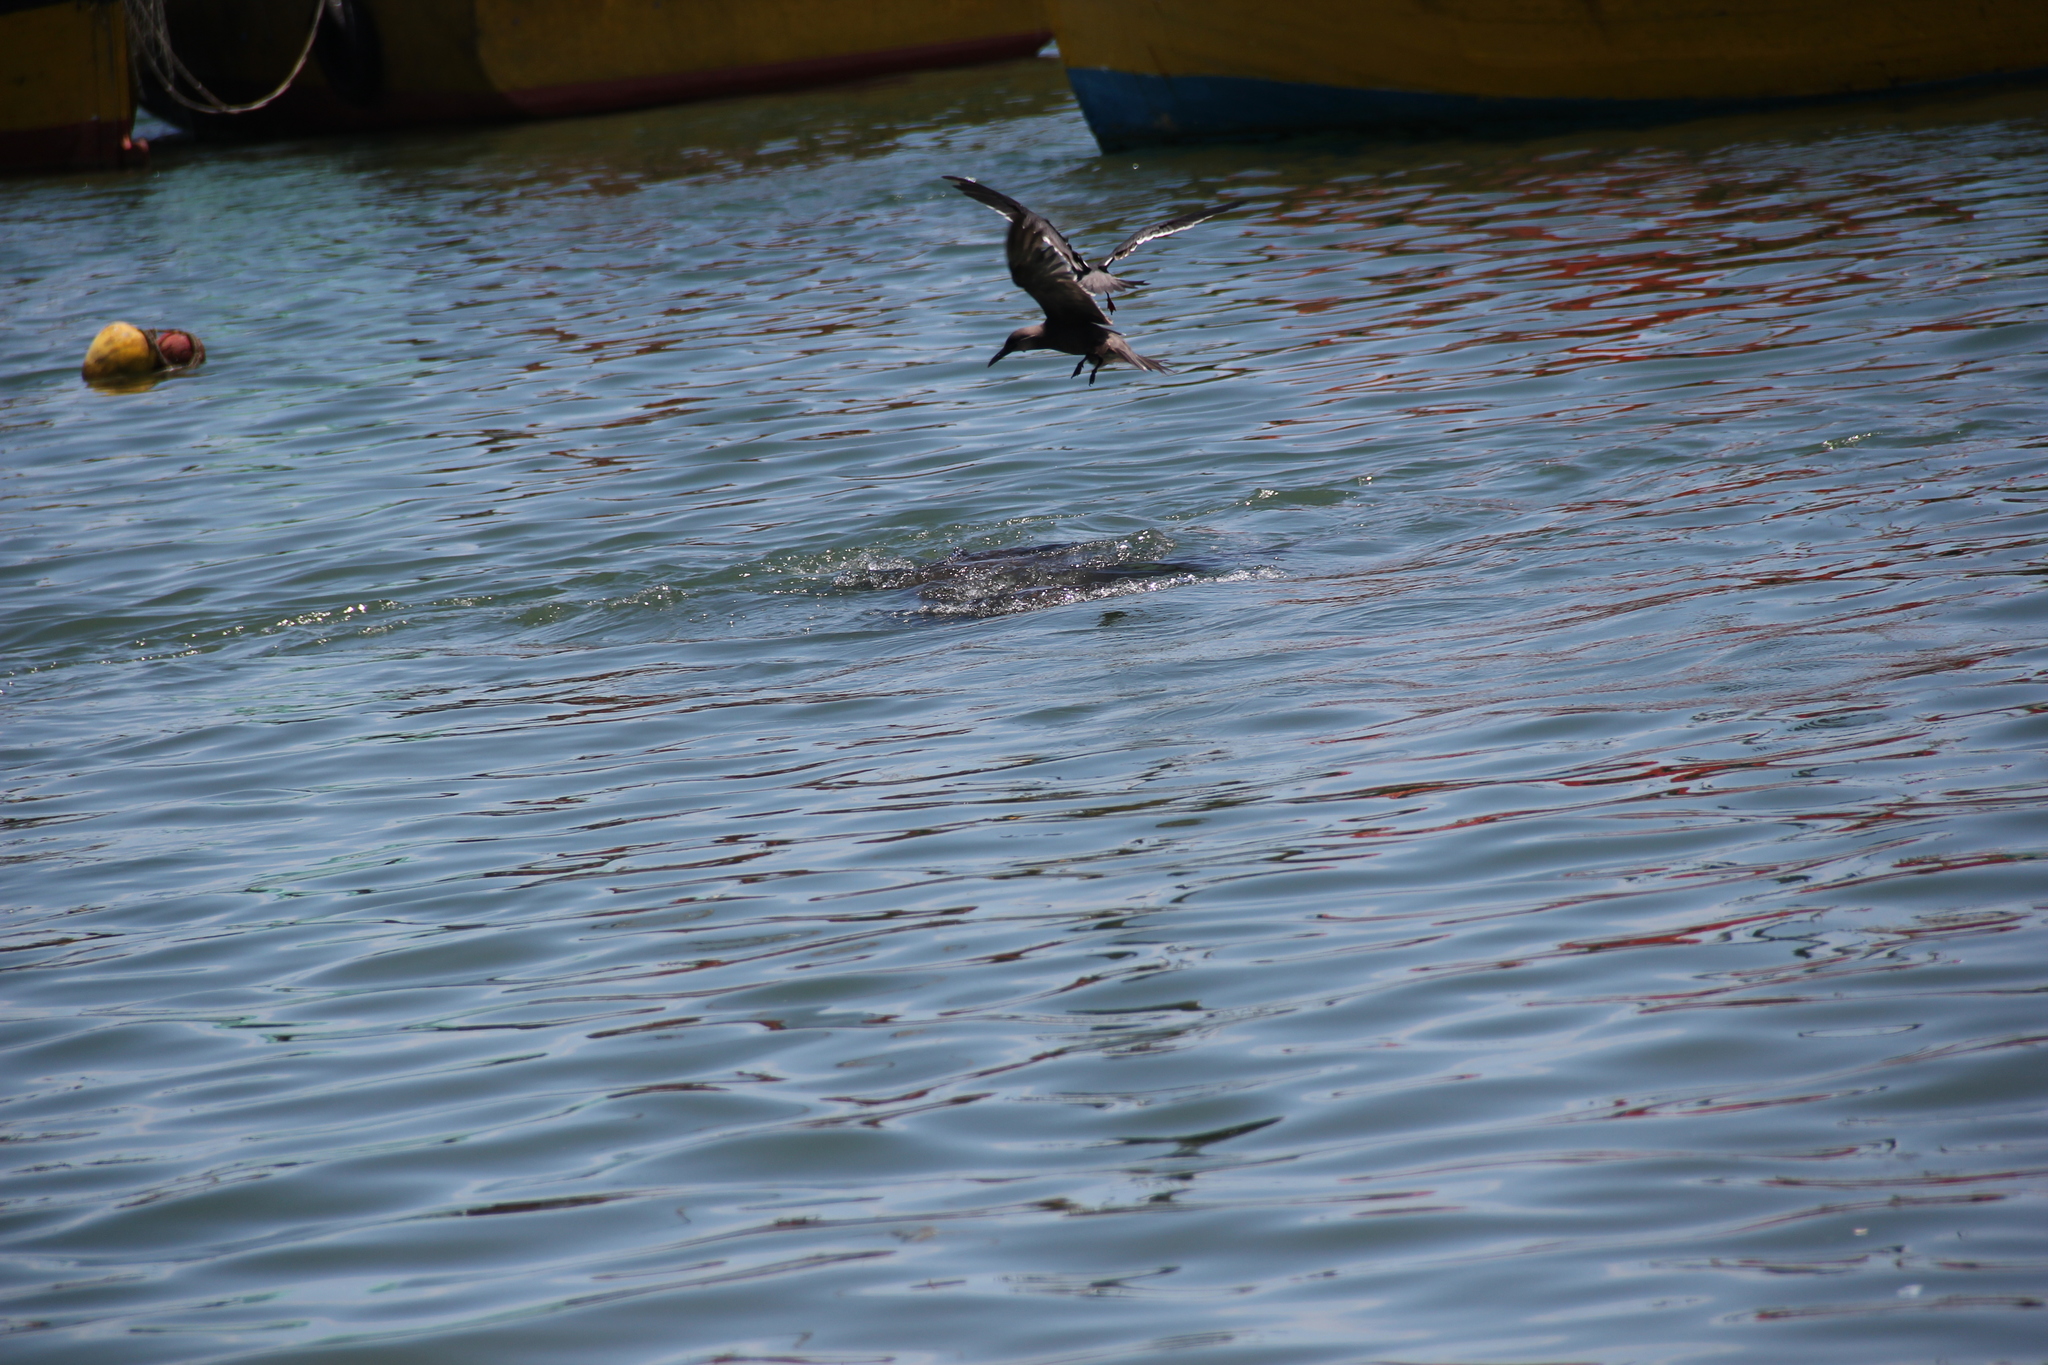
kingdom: Animalia
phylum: Chordata
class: Aves
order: Charadriiformes
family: Laridae
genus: Larosterna
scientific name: Larosterna inca
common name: Inca tern
